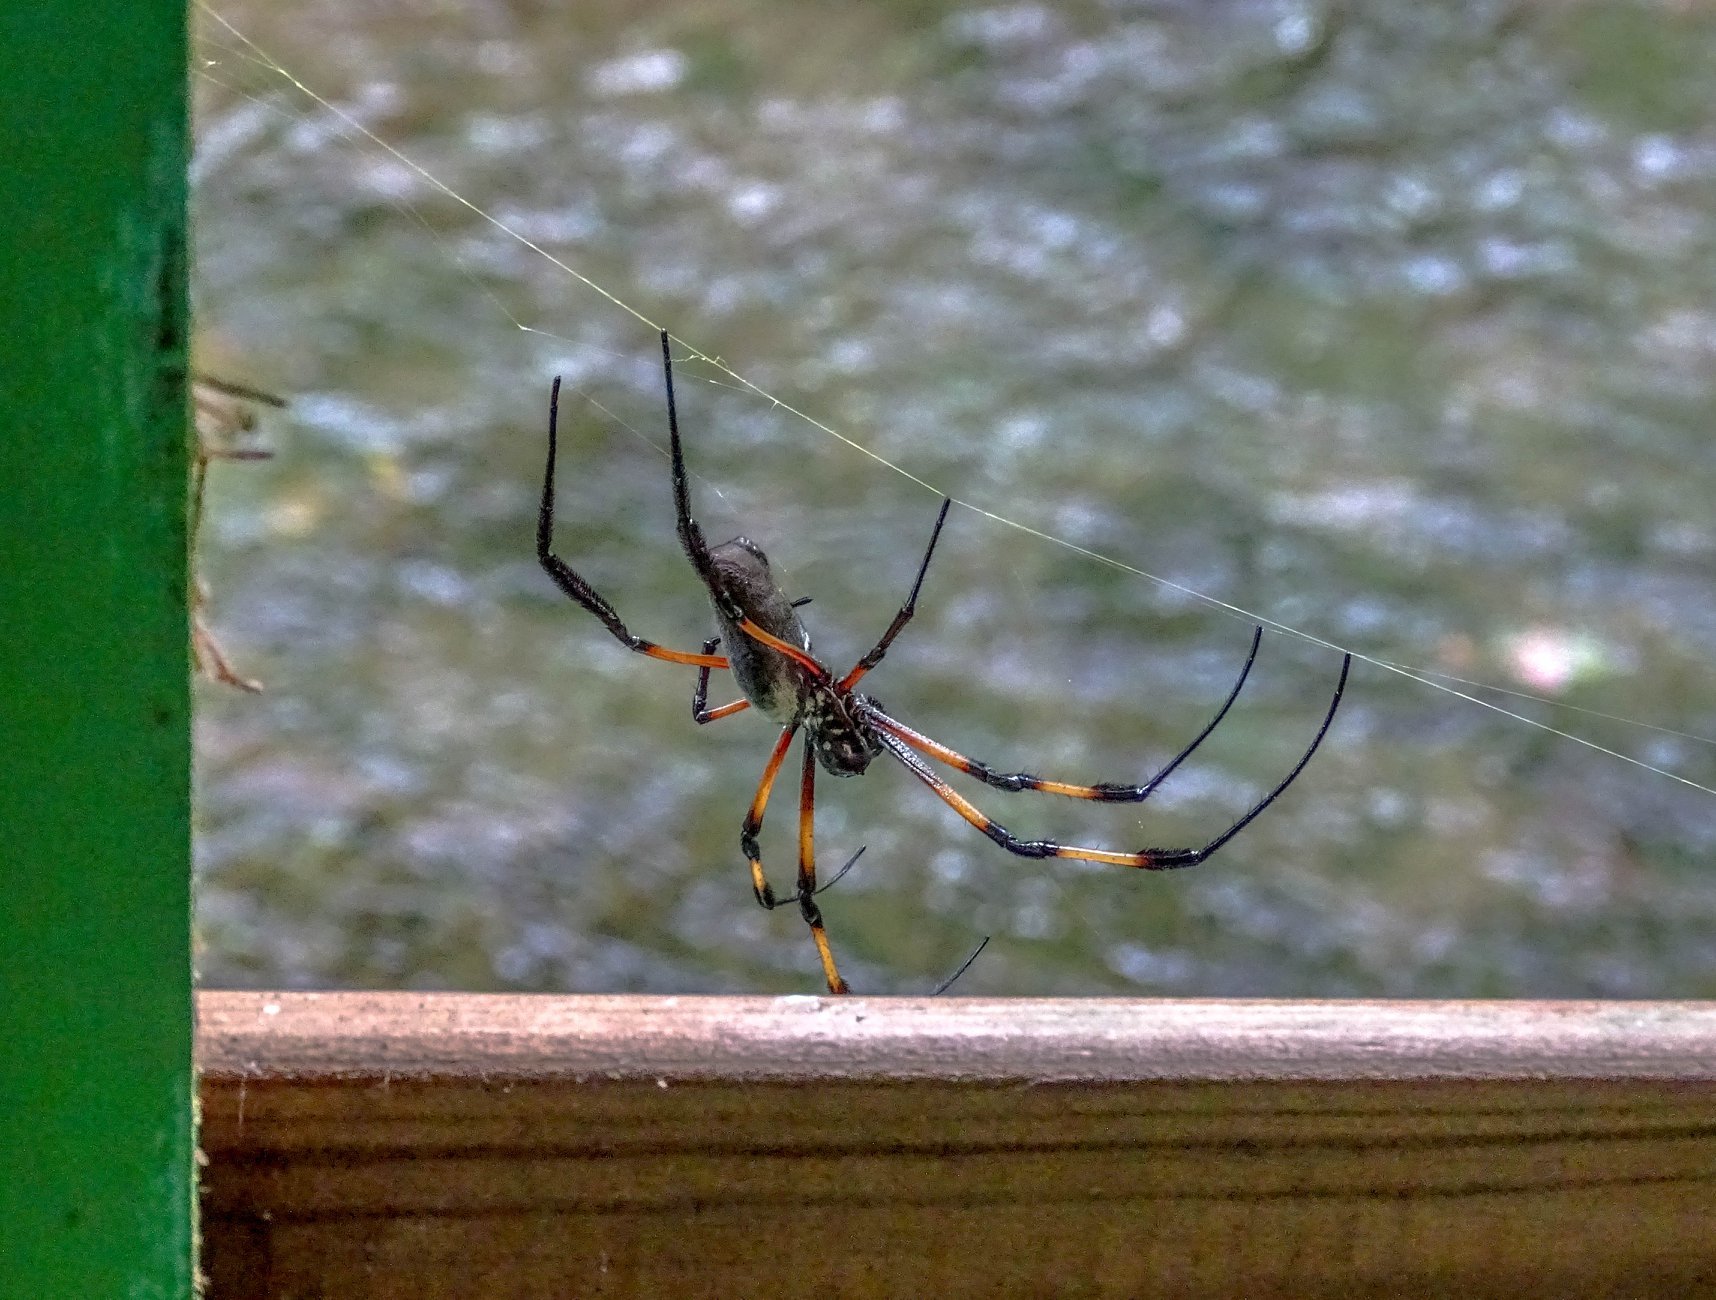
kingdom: Animalia
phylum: Arthropoda
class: Arachnida
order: Araneae
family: Araneidae
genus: Trichonephila
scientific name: Trichonephila inaurata
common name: Red-legged golden orb weaver
